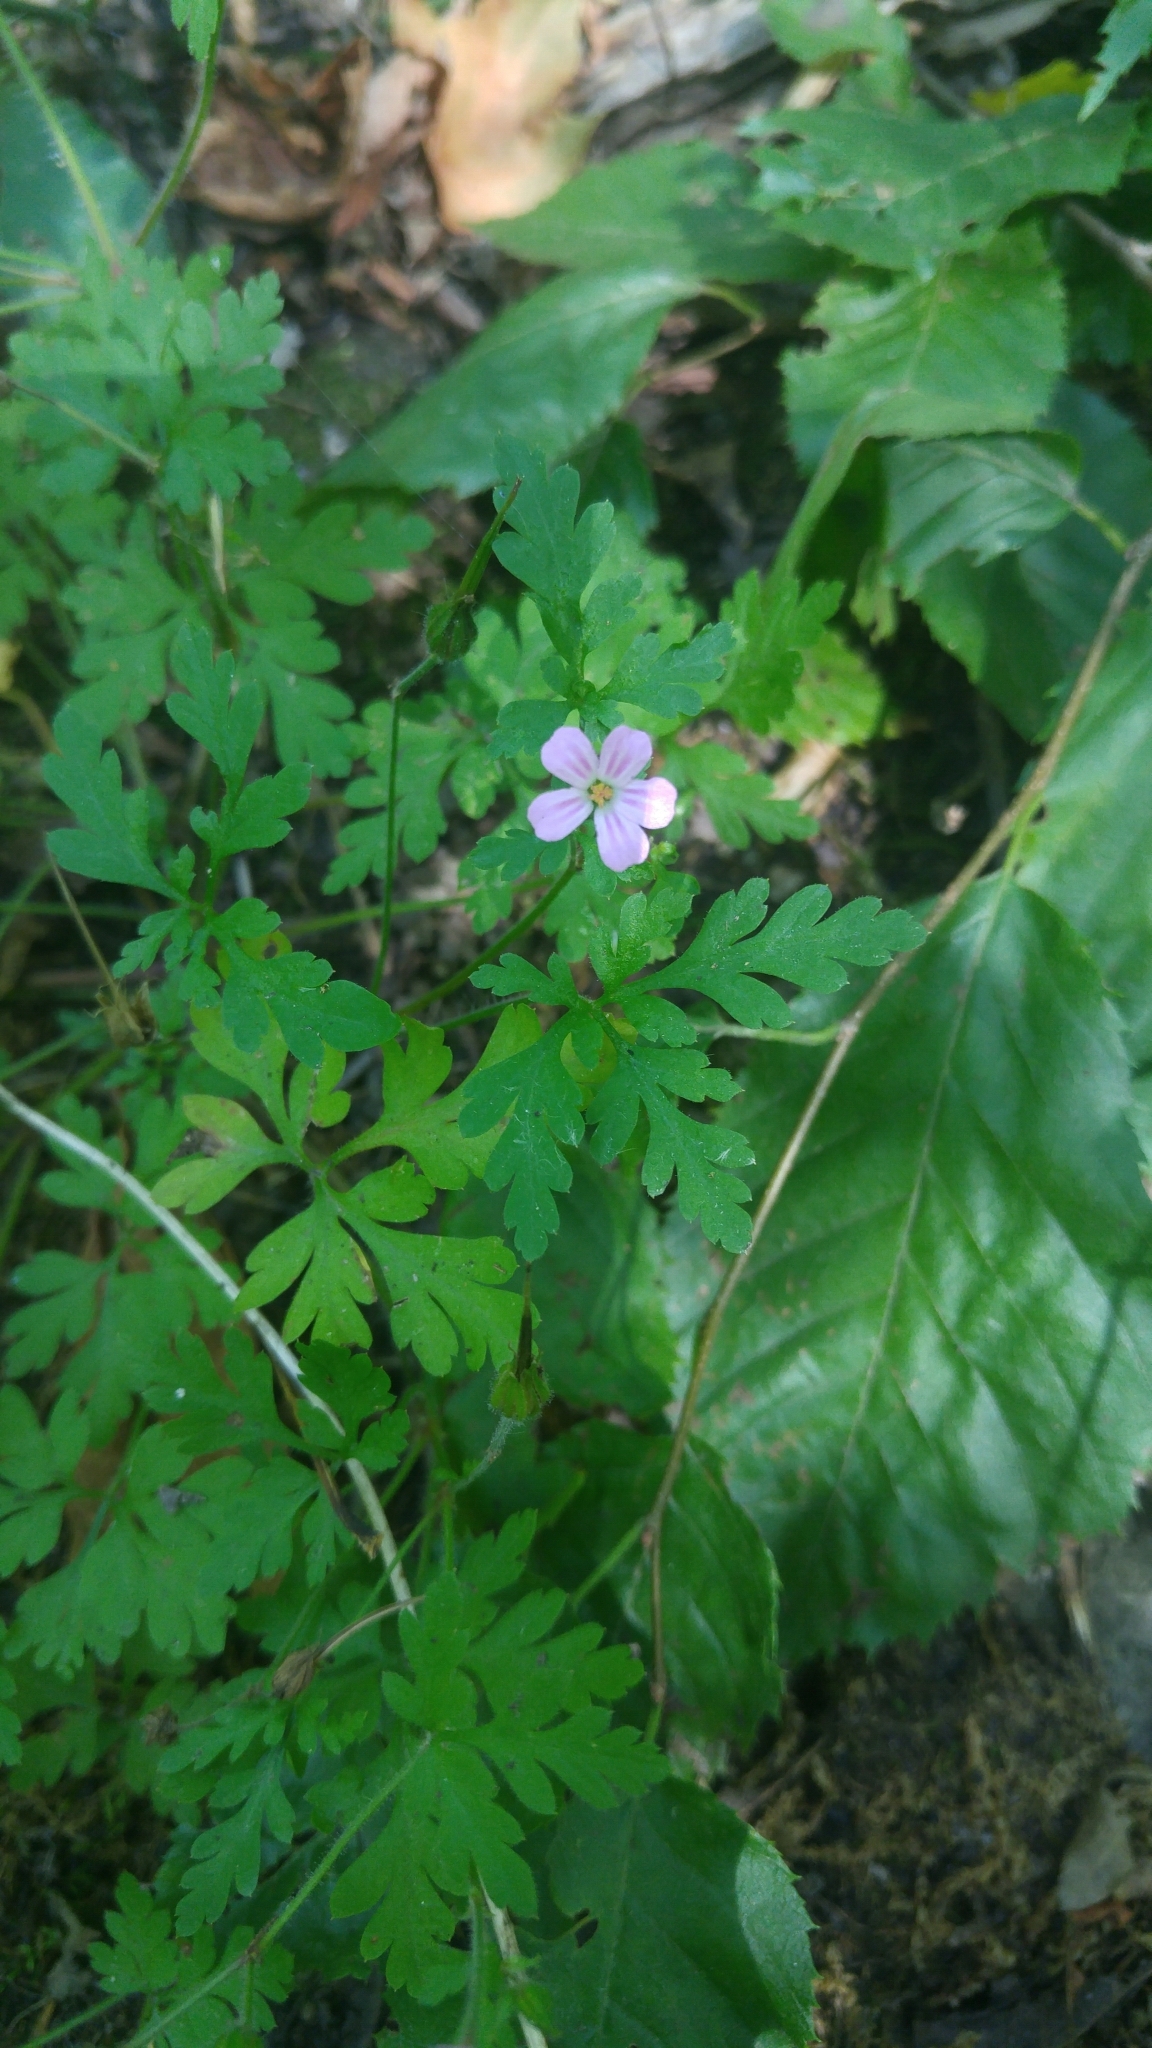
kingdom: Plantae
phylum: Tracheophyta
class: Magnoliopsida
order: Geraniales
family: Geraniaceae
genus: Geranium
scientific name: Geranium robertianum
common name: Herb-robert
